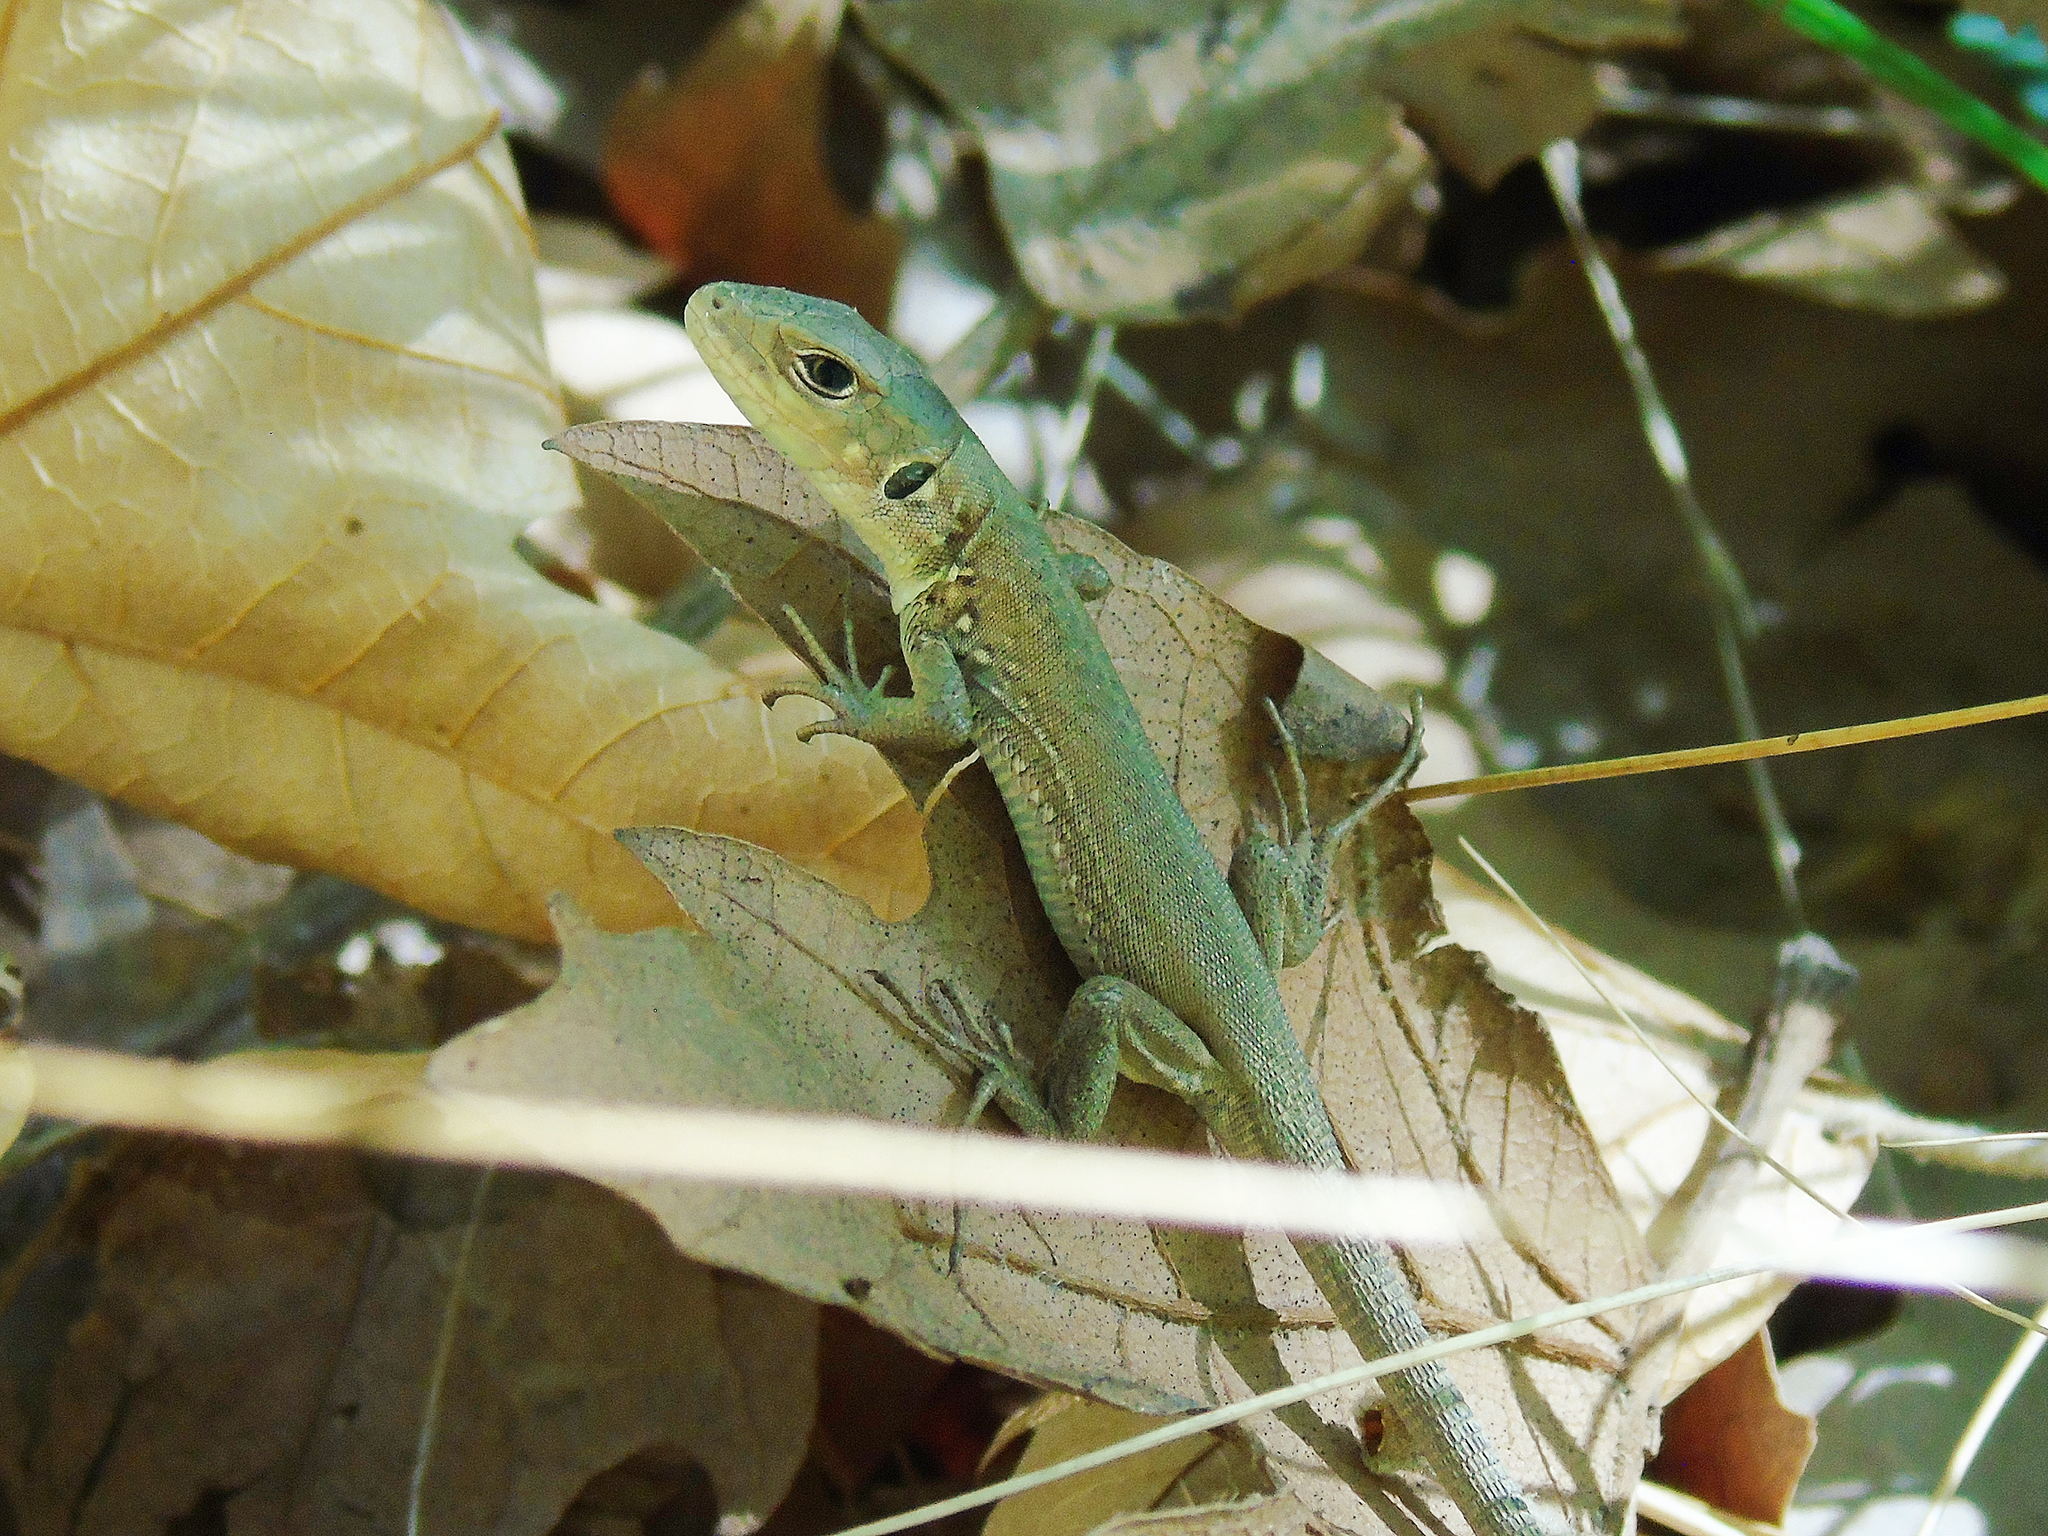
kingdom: Animalia
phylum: Chordata
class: Squamata
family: Lacertidae
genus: Lacerta
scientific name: Lacerta trilineata
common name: Balkan green lizard
